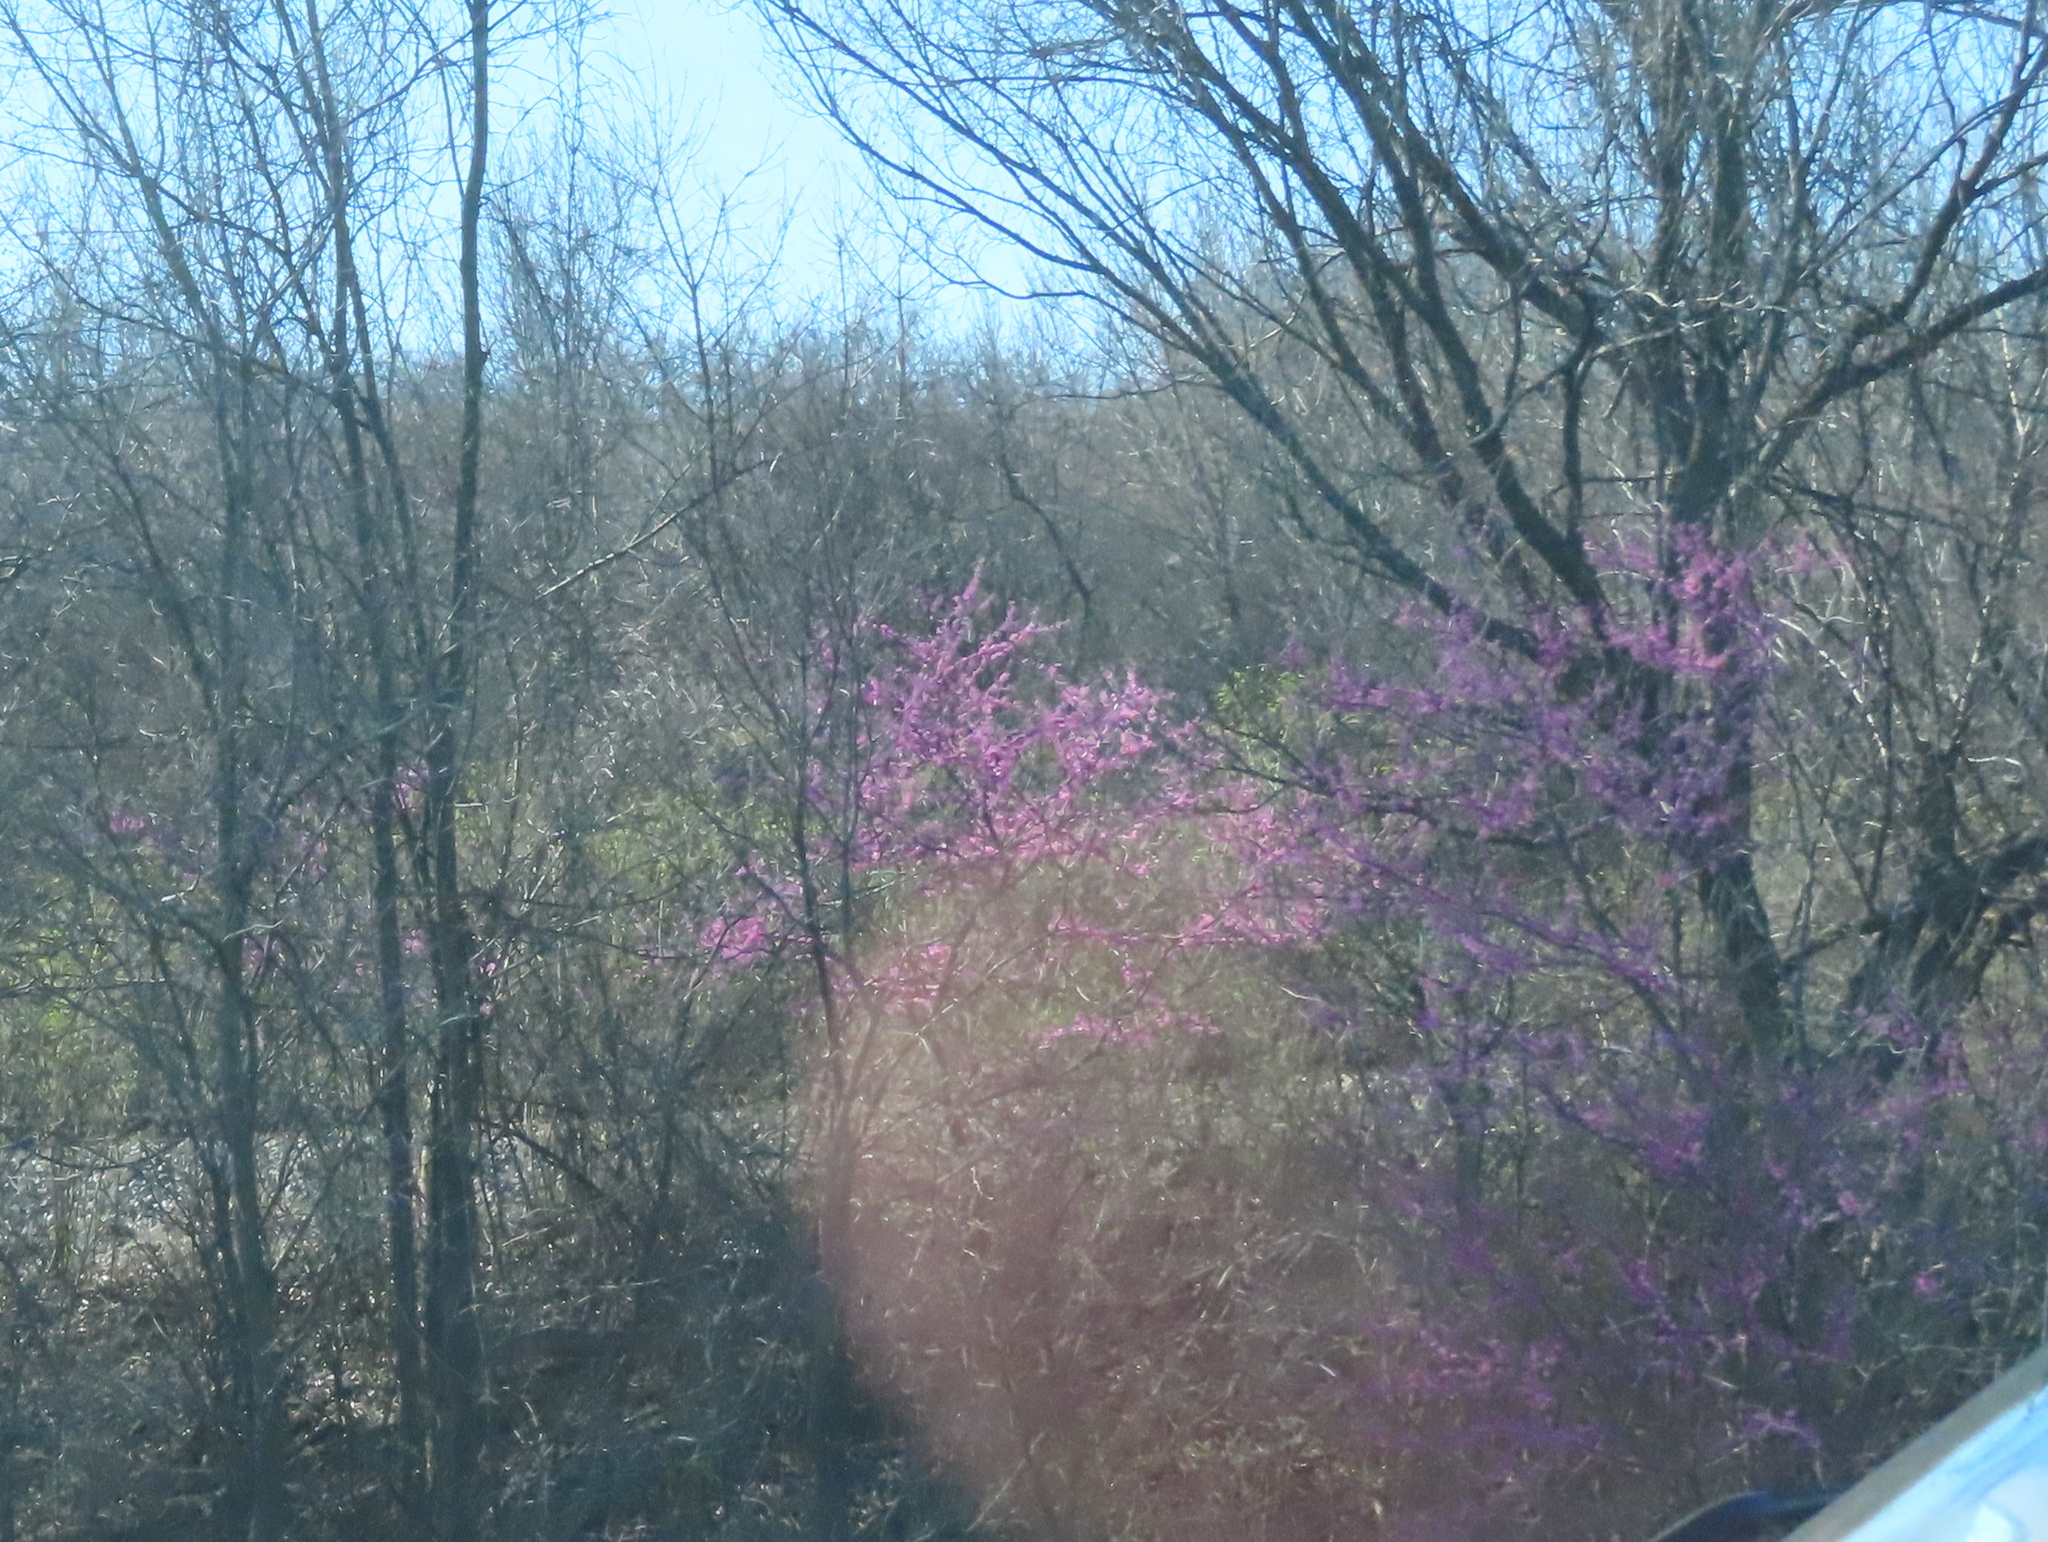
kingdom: Plantae
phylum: Tracheophyta
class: Magnoliopsida
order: Fabales
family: Fabaceae
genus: Cercis
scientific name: Cercis canadensis
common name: Eastern redbud
